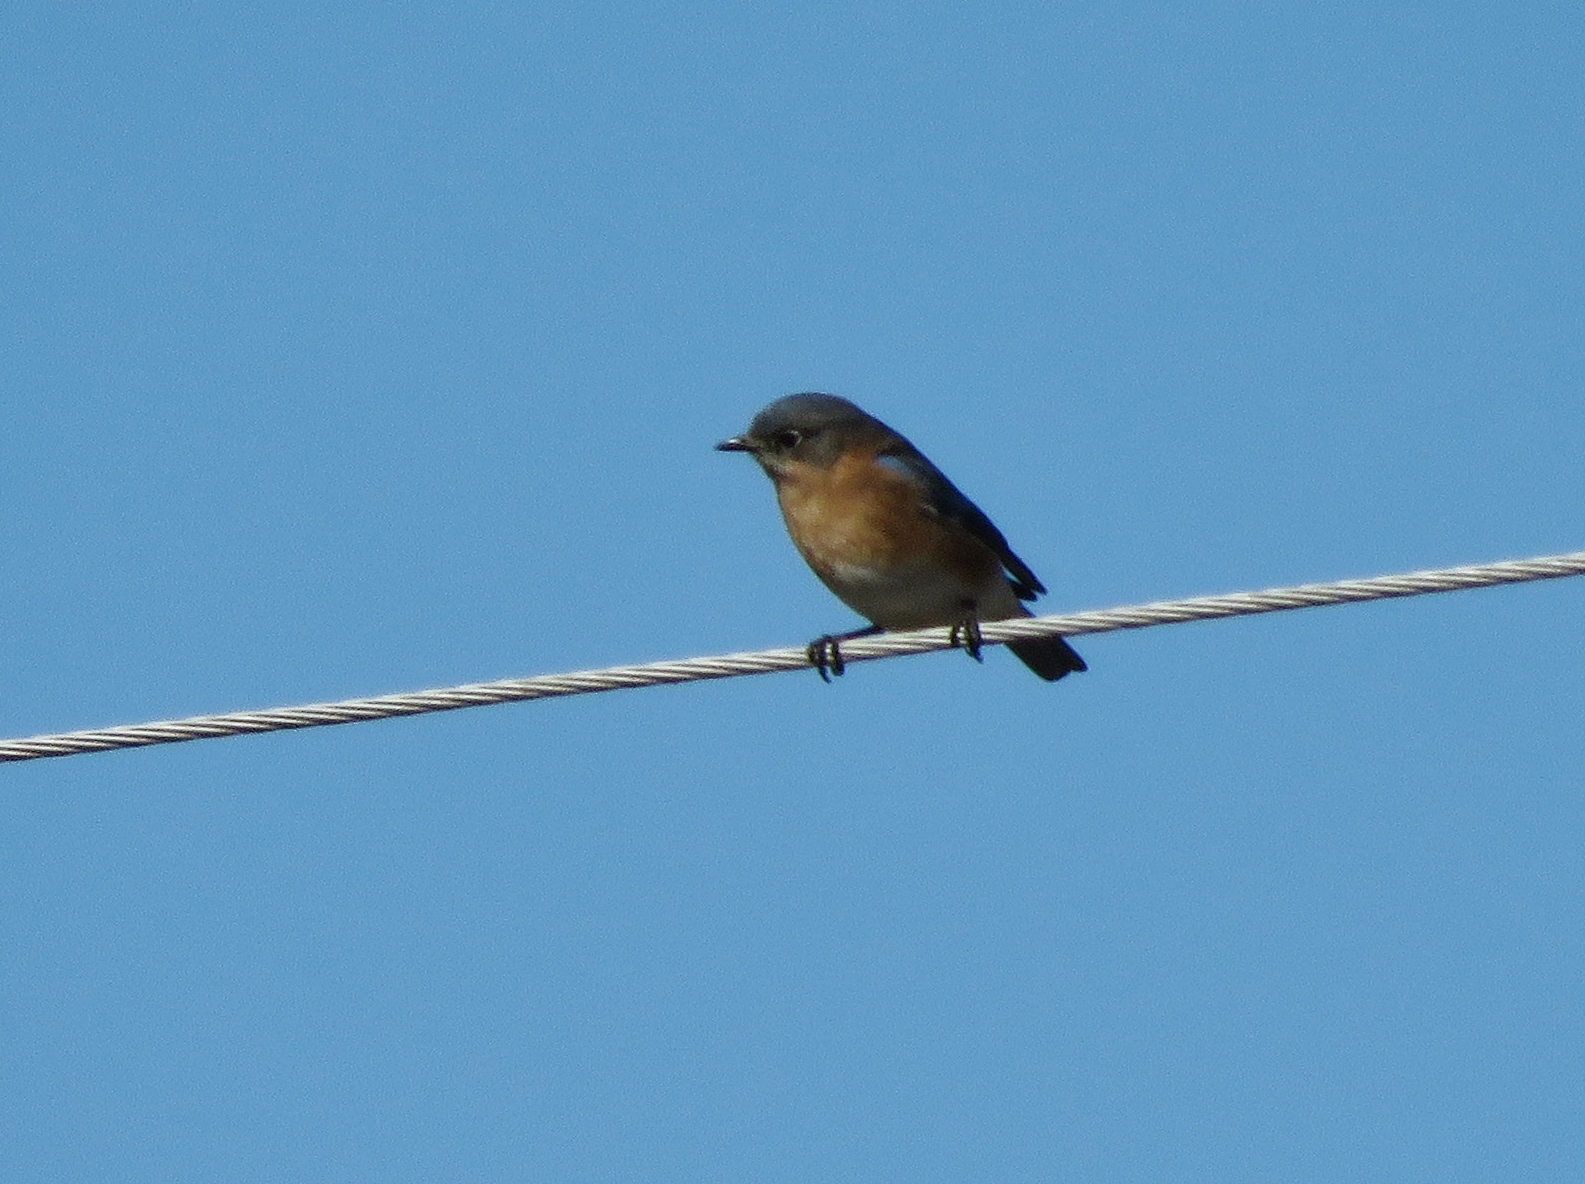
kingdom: Animalia
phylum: Chordata
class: Aves
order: Passeriformes
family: Turdidae
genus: Sialia
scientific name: Sialia sialis
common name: Eastern bluebird
